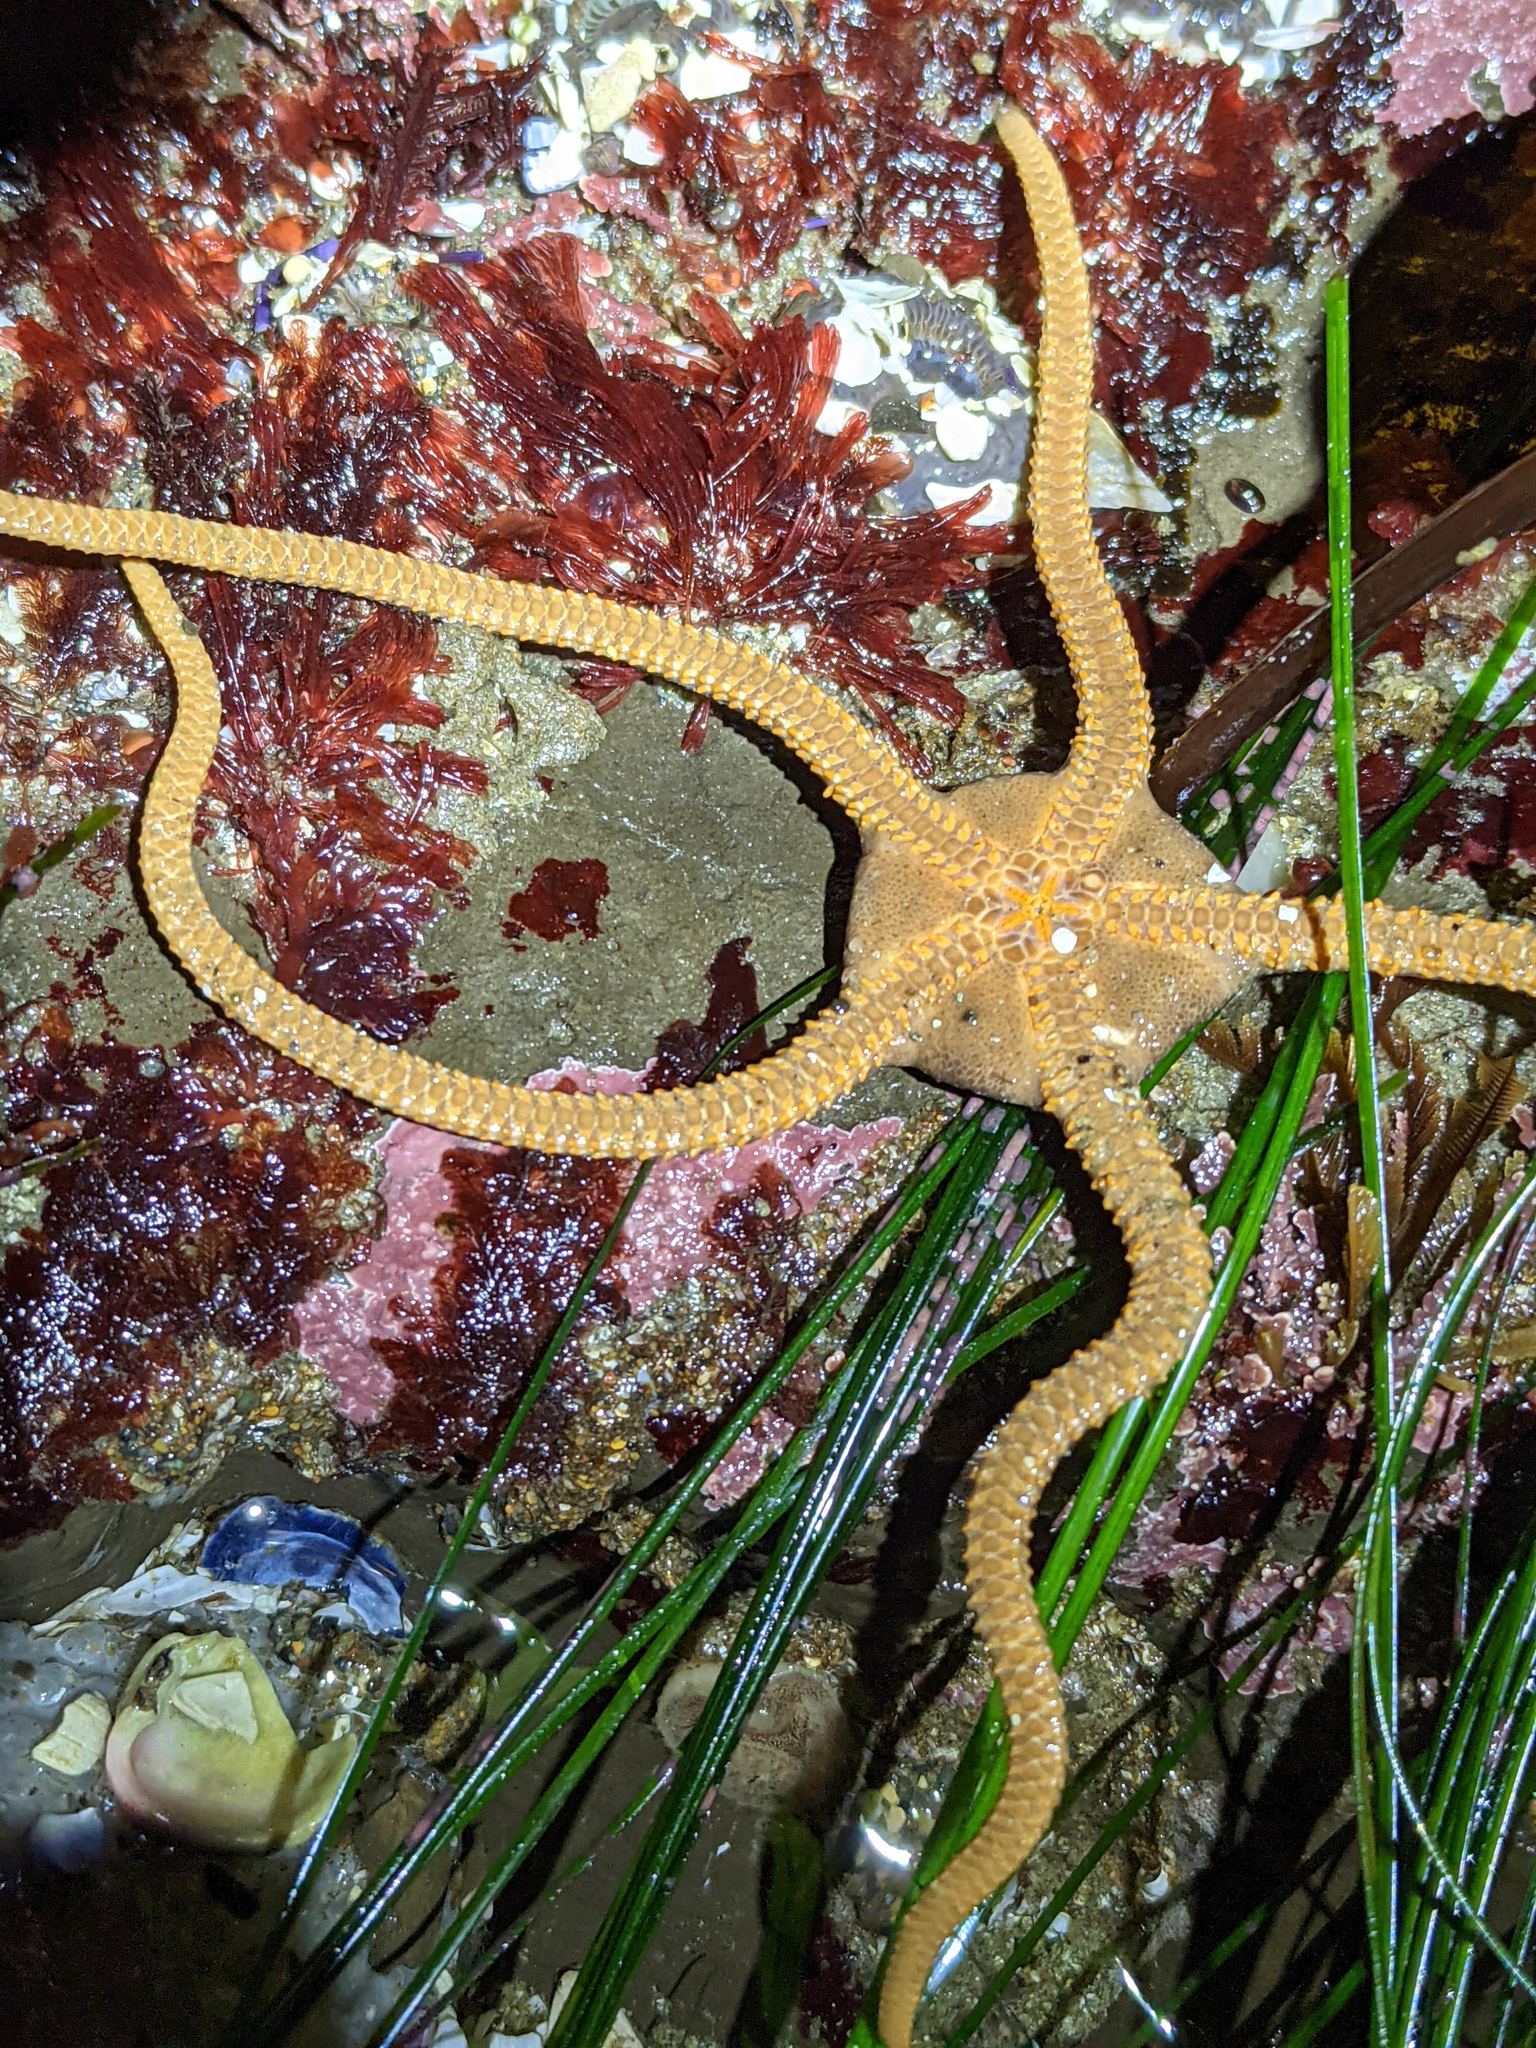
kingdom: Animalia
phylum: Echinodermata
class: Ophiuroidea
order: Amphilepidida
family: Hemieuryalidae
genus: Ophioplocus
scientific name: Ophioplocus esmarki
